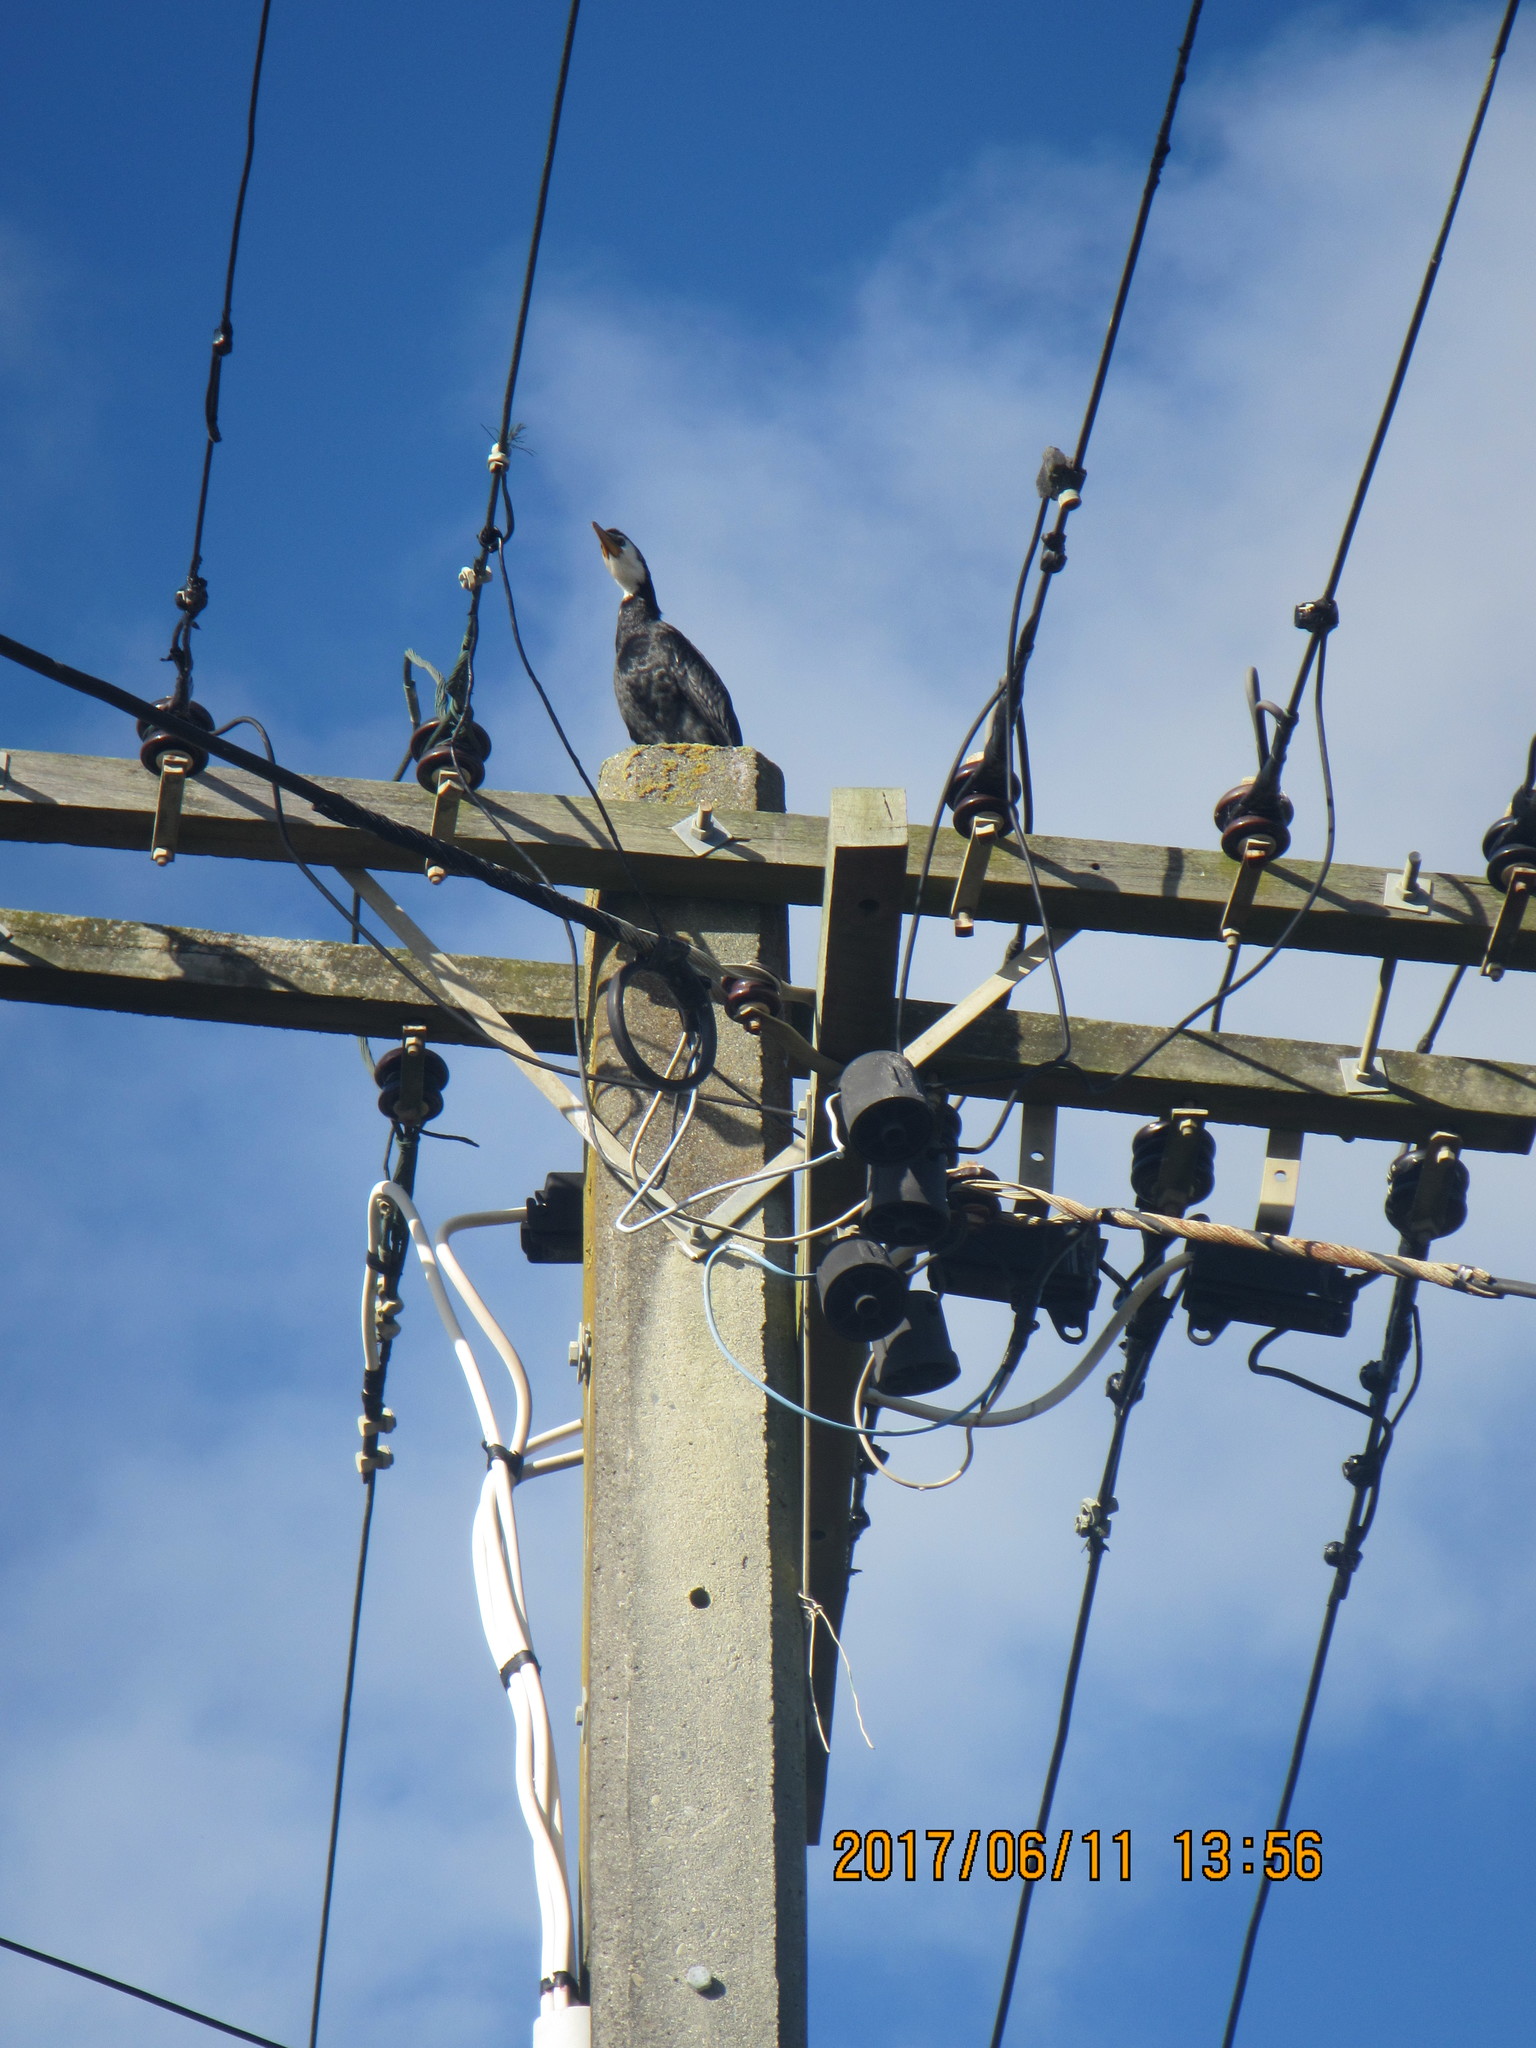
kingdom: Animalia
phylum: Chordata
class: Aves
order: Suliformes
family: Phalacrocoracidae
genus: Microcarbo
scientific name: Microcarbo melanoleucos
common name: Little pied cormorant
